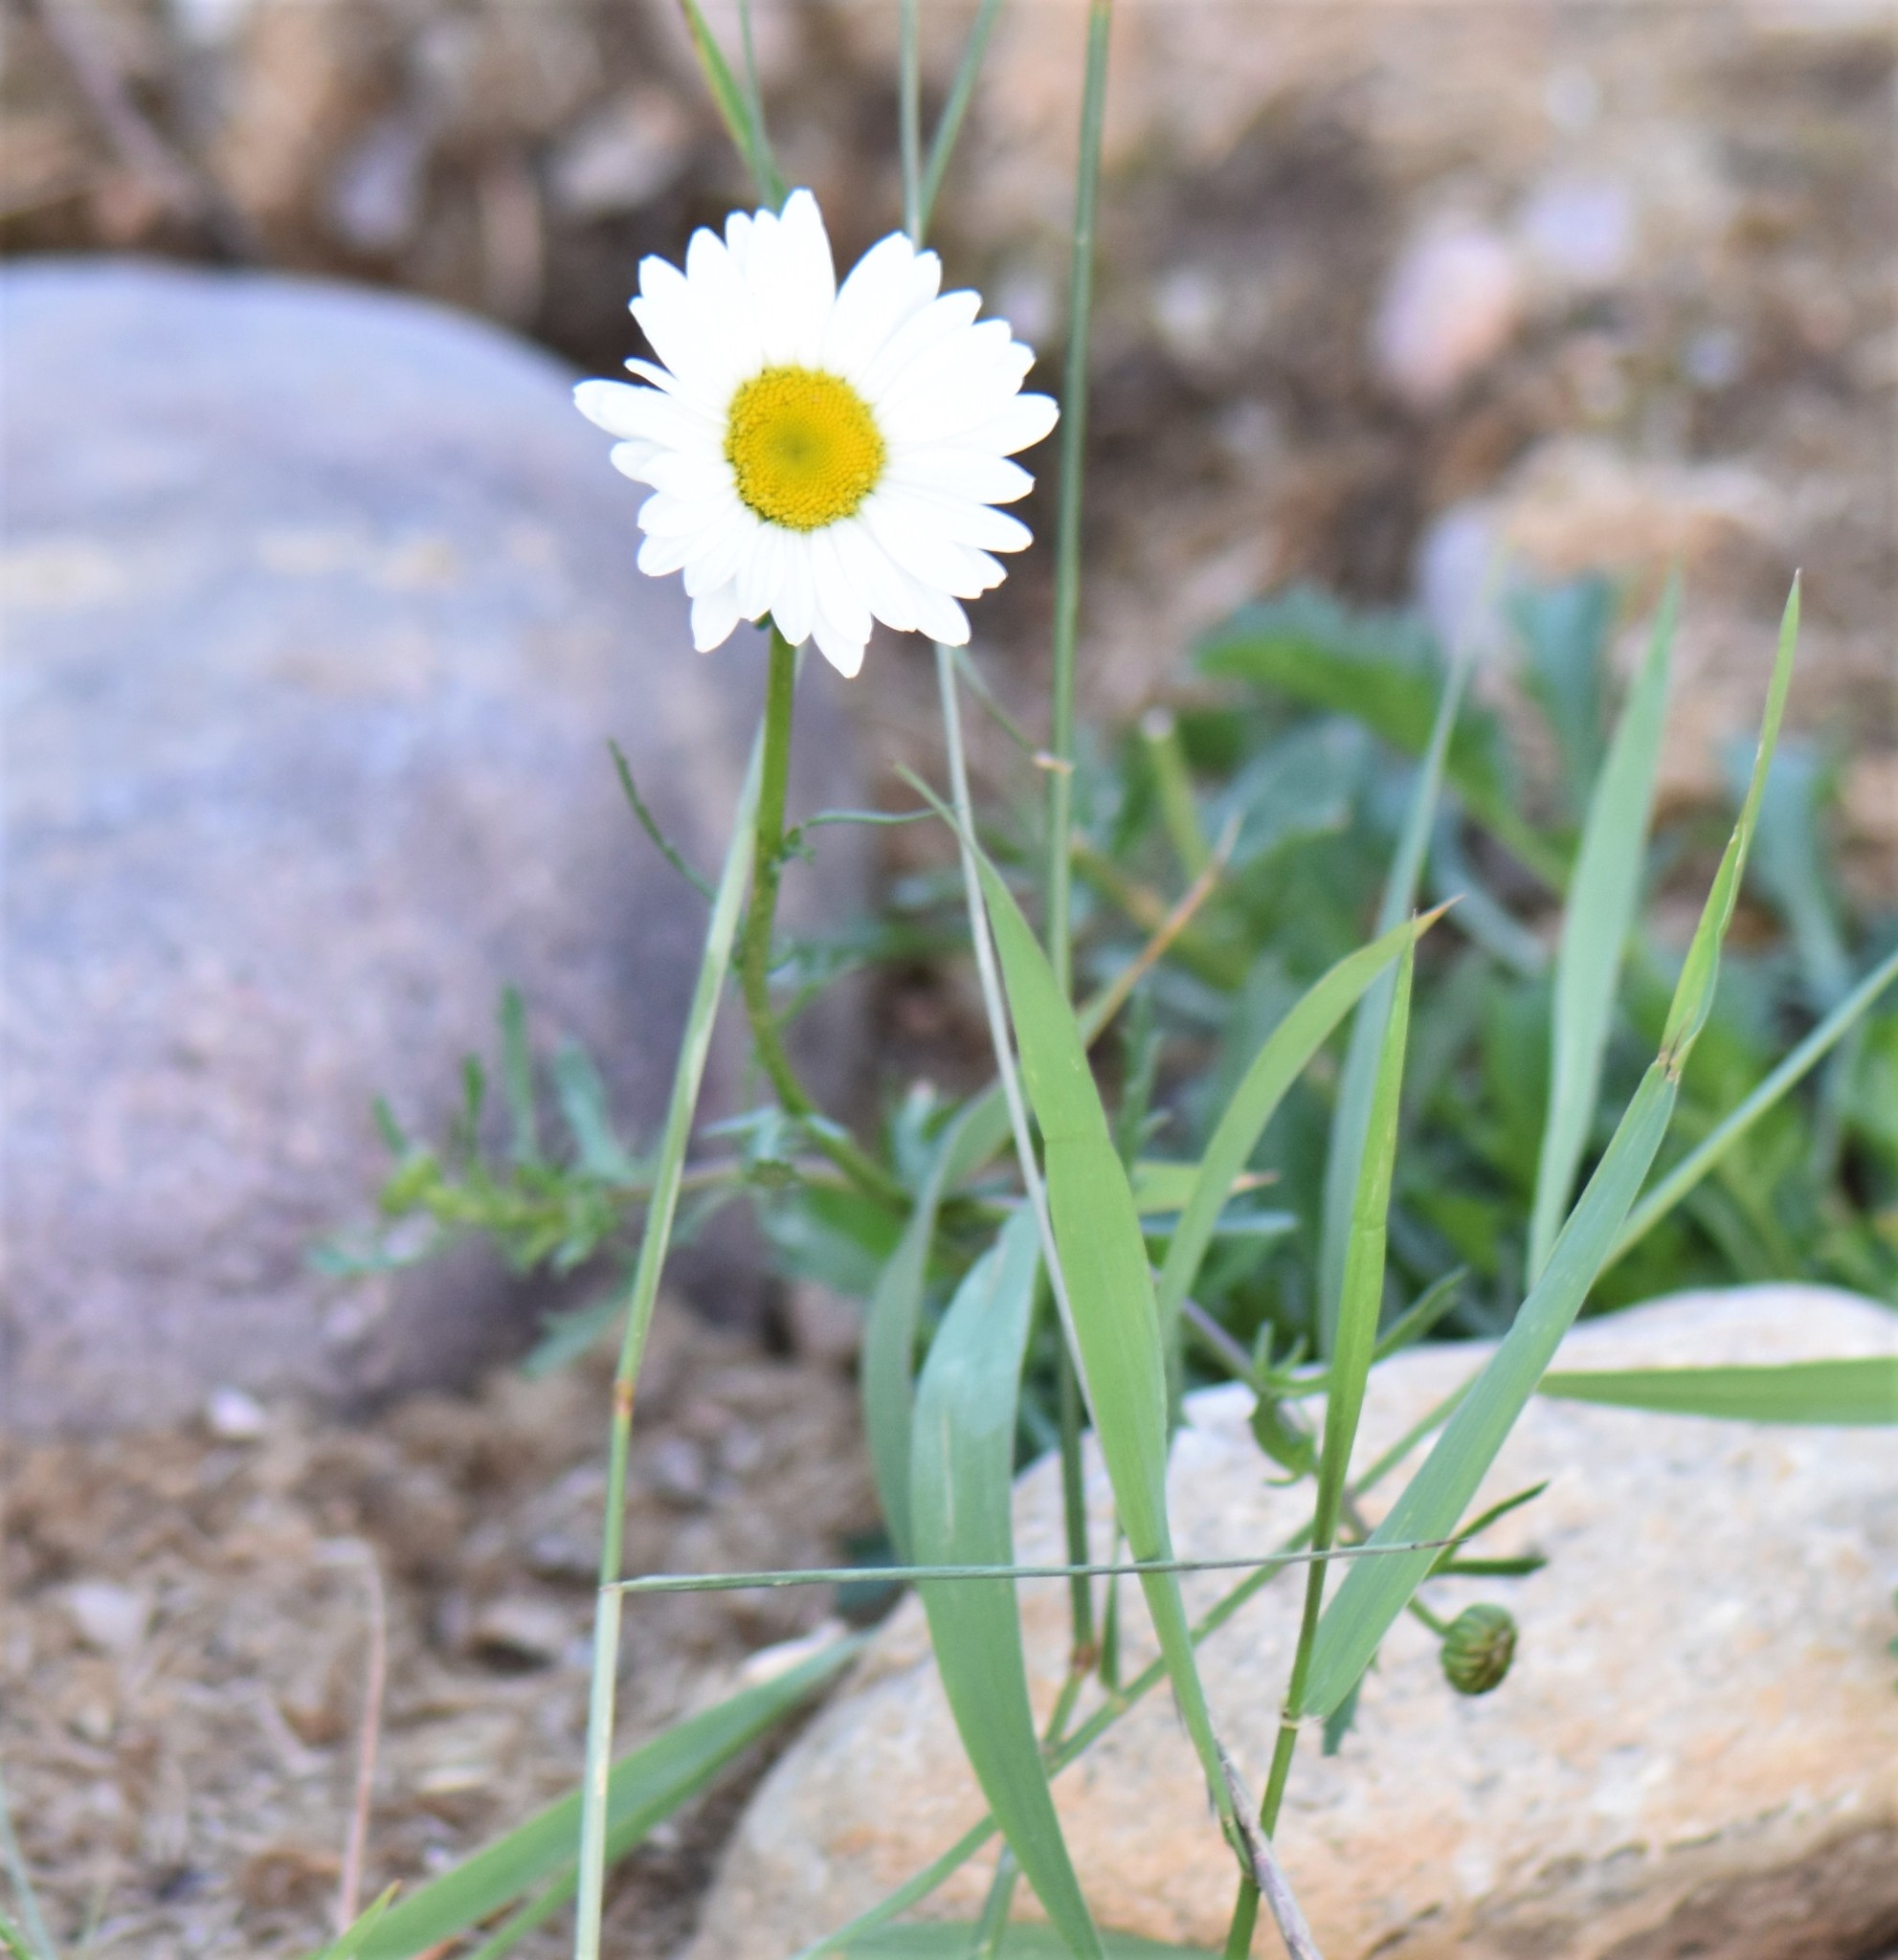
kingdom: Plantae
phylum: Tracheophyta
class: Magnoliopsida
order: Asterales
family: Asteraceae
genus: Leucanthemum
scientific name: Leucanthemum vulgare
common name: Oxeye daisy
